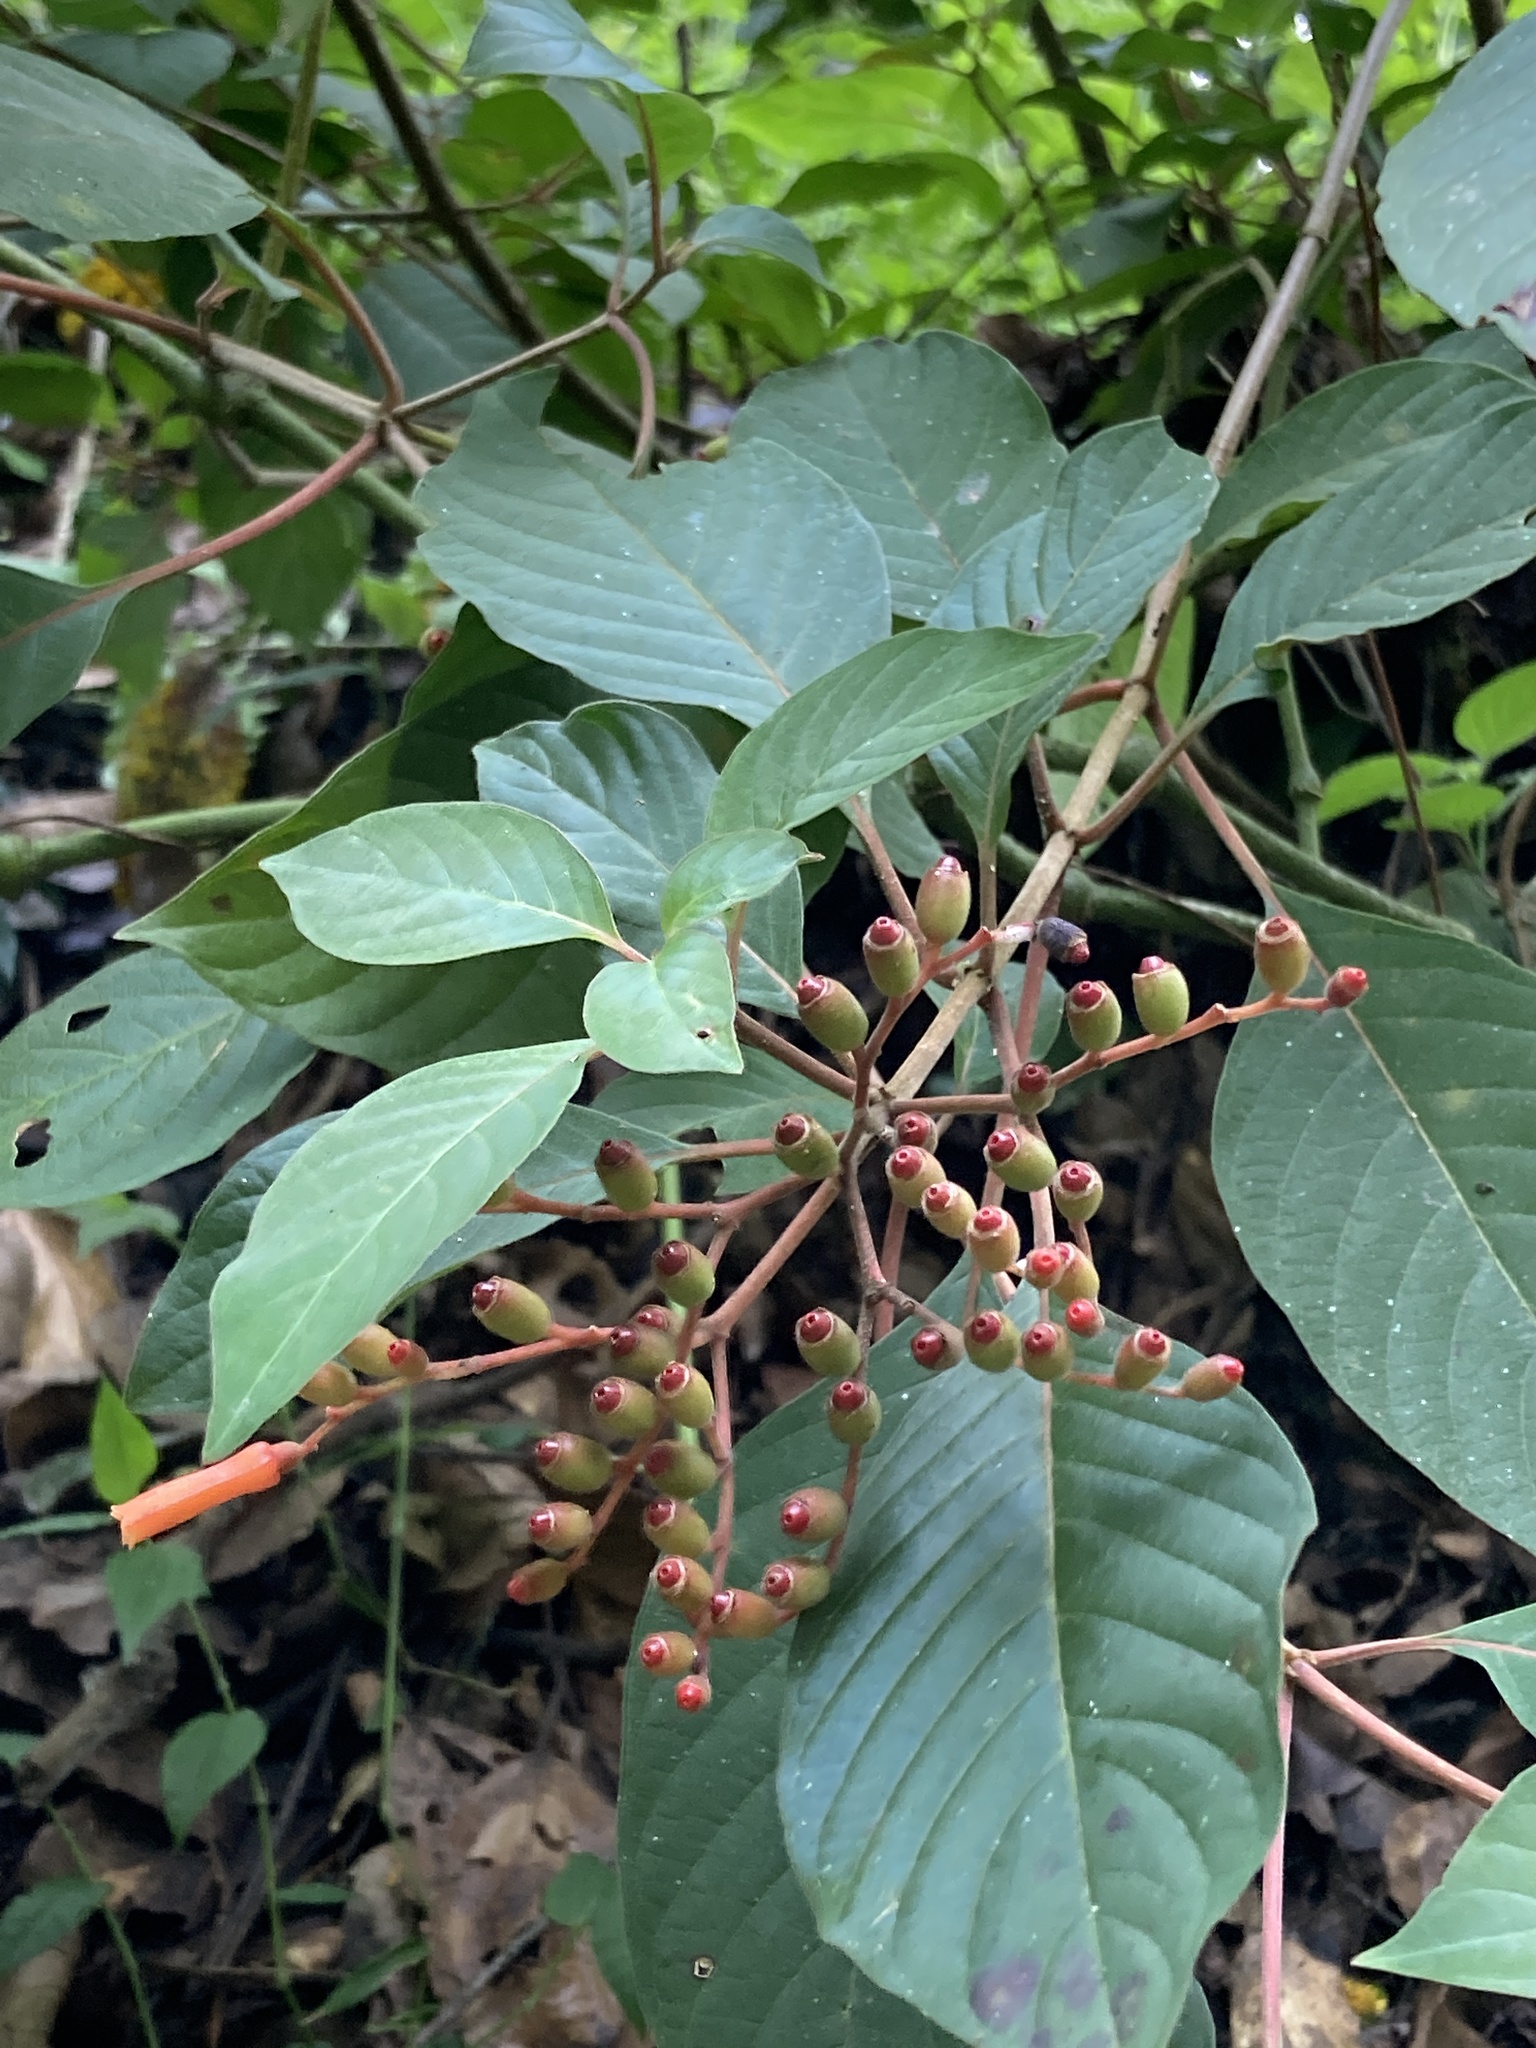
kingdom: Plantae
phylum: Tracheophyta
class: Magnoliopsida
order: Gentianales
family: Rubiaceae
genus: Hamelia
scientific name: Hamelia patens
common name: Redhead
